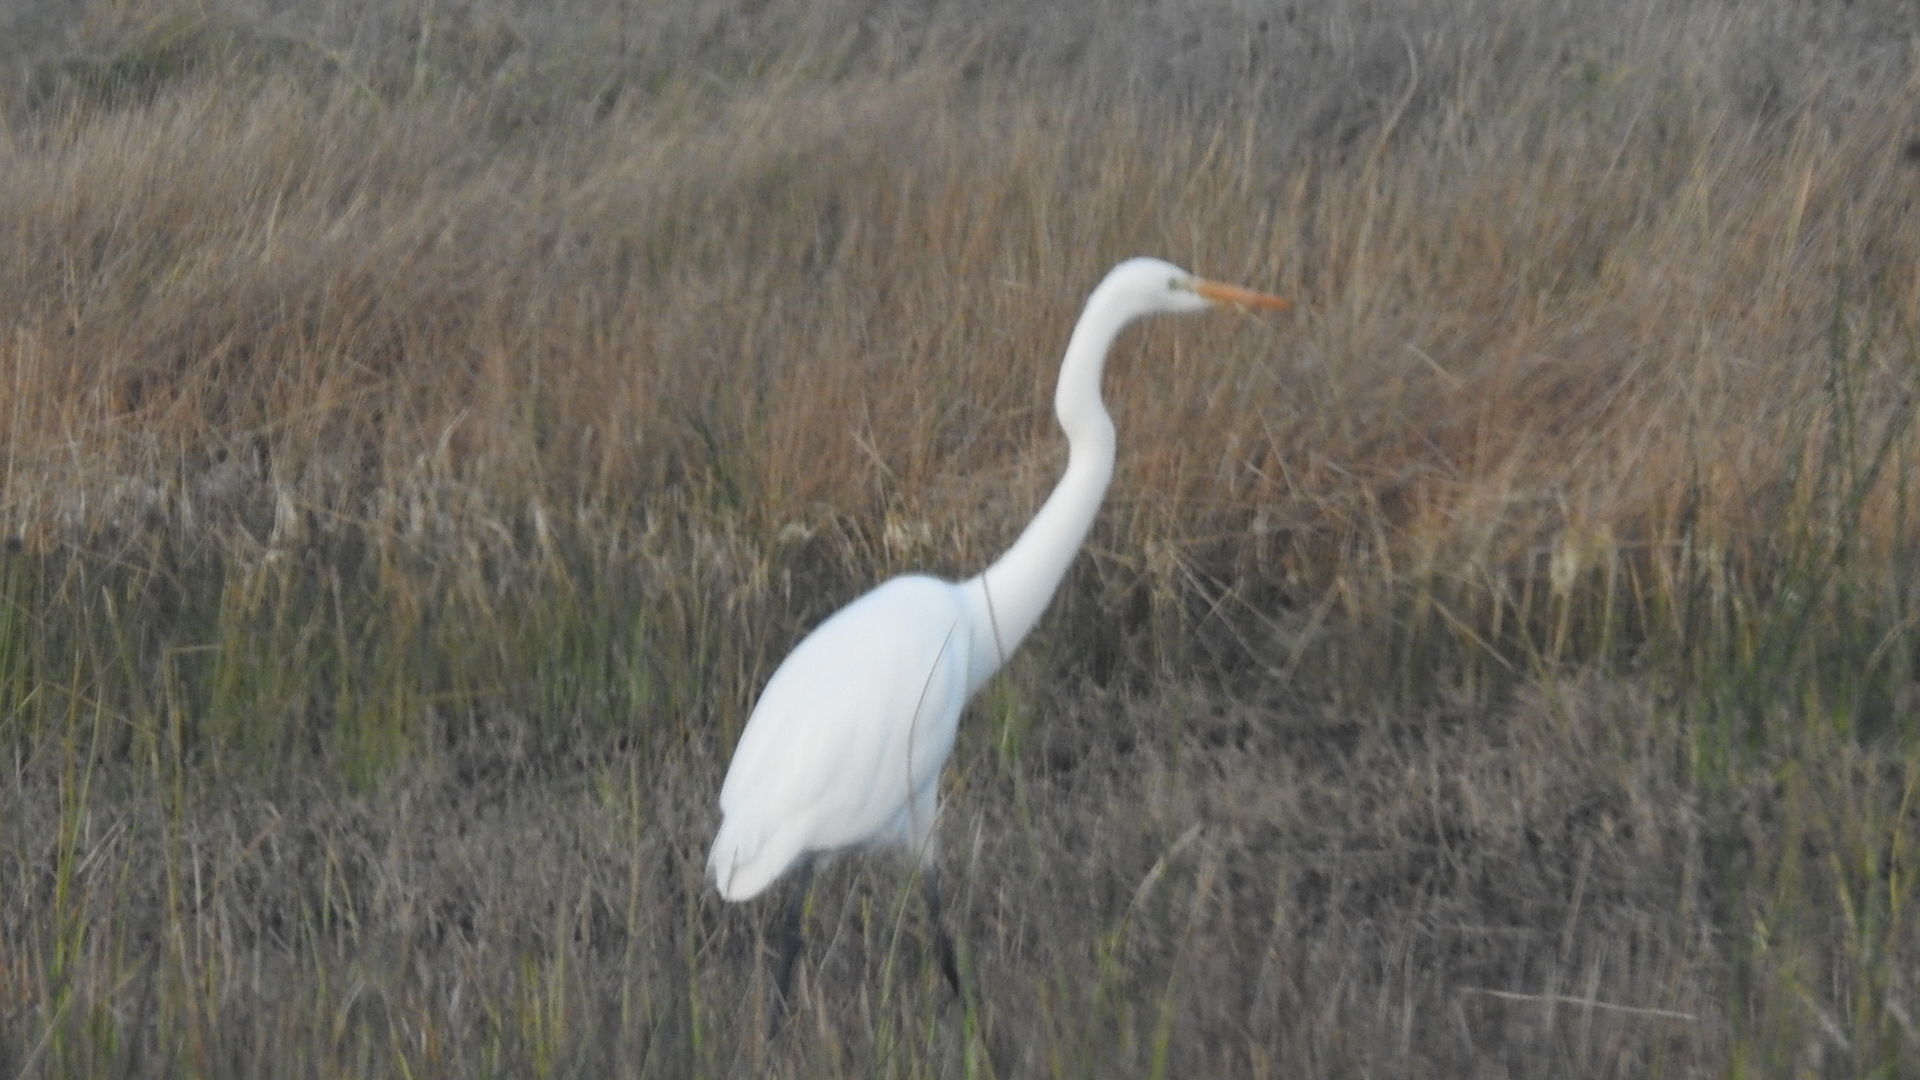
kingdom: Animalia
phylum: Chordata
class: Aves
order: Pelecaniformes
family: Ardeidae
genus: Ardea
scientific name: Ardea alba
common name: Great egret
